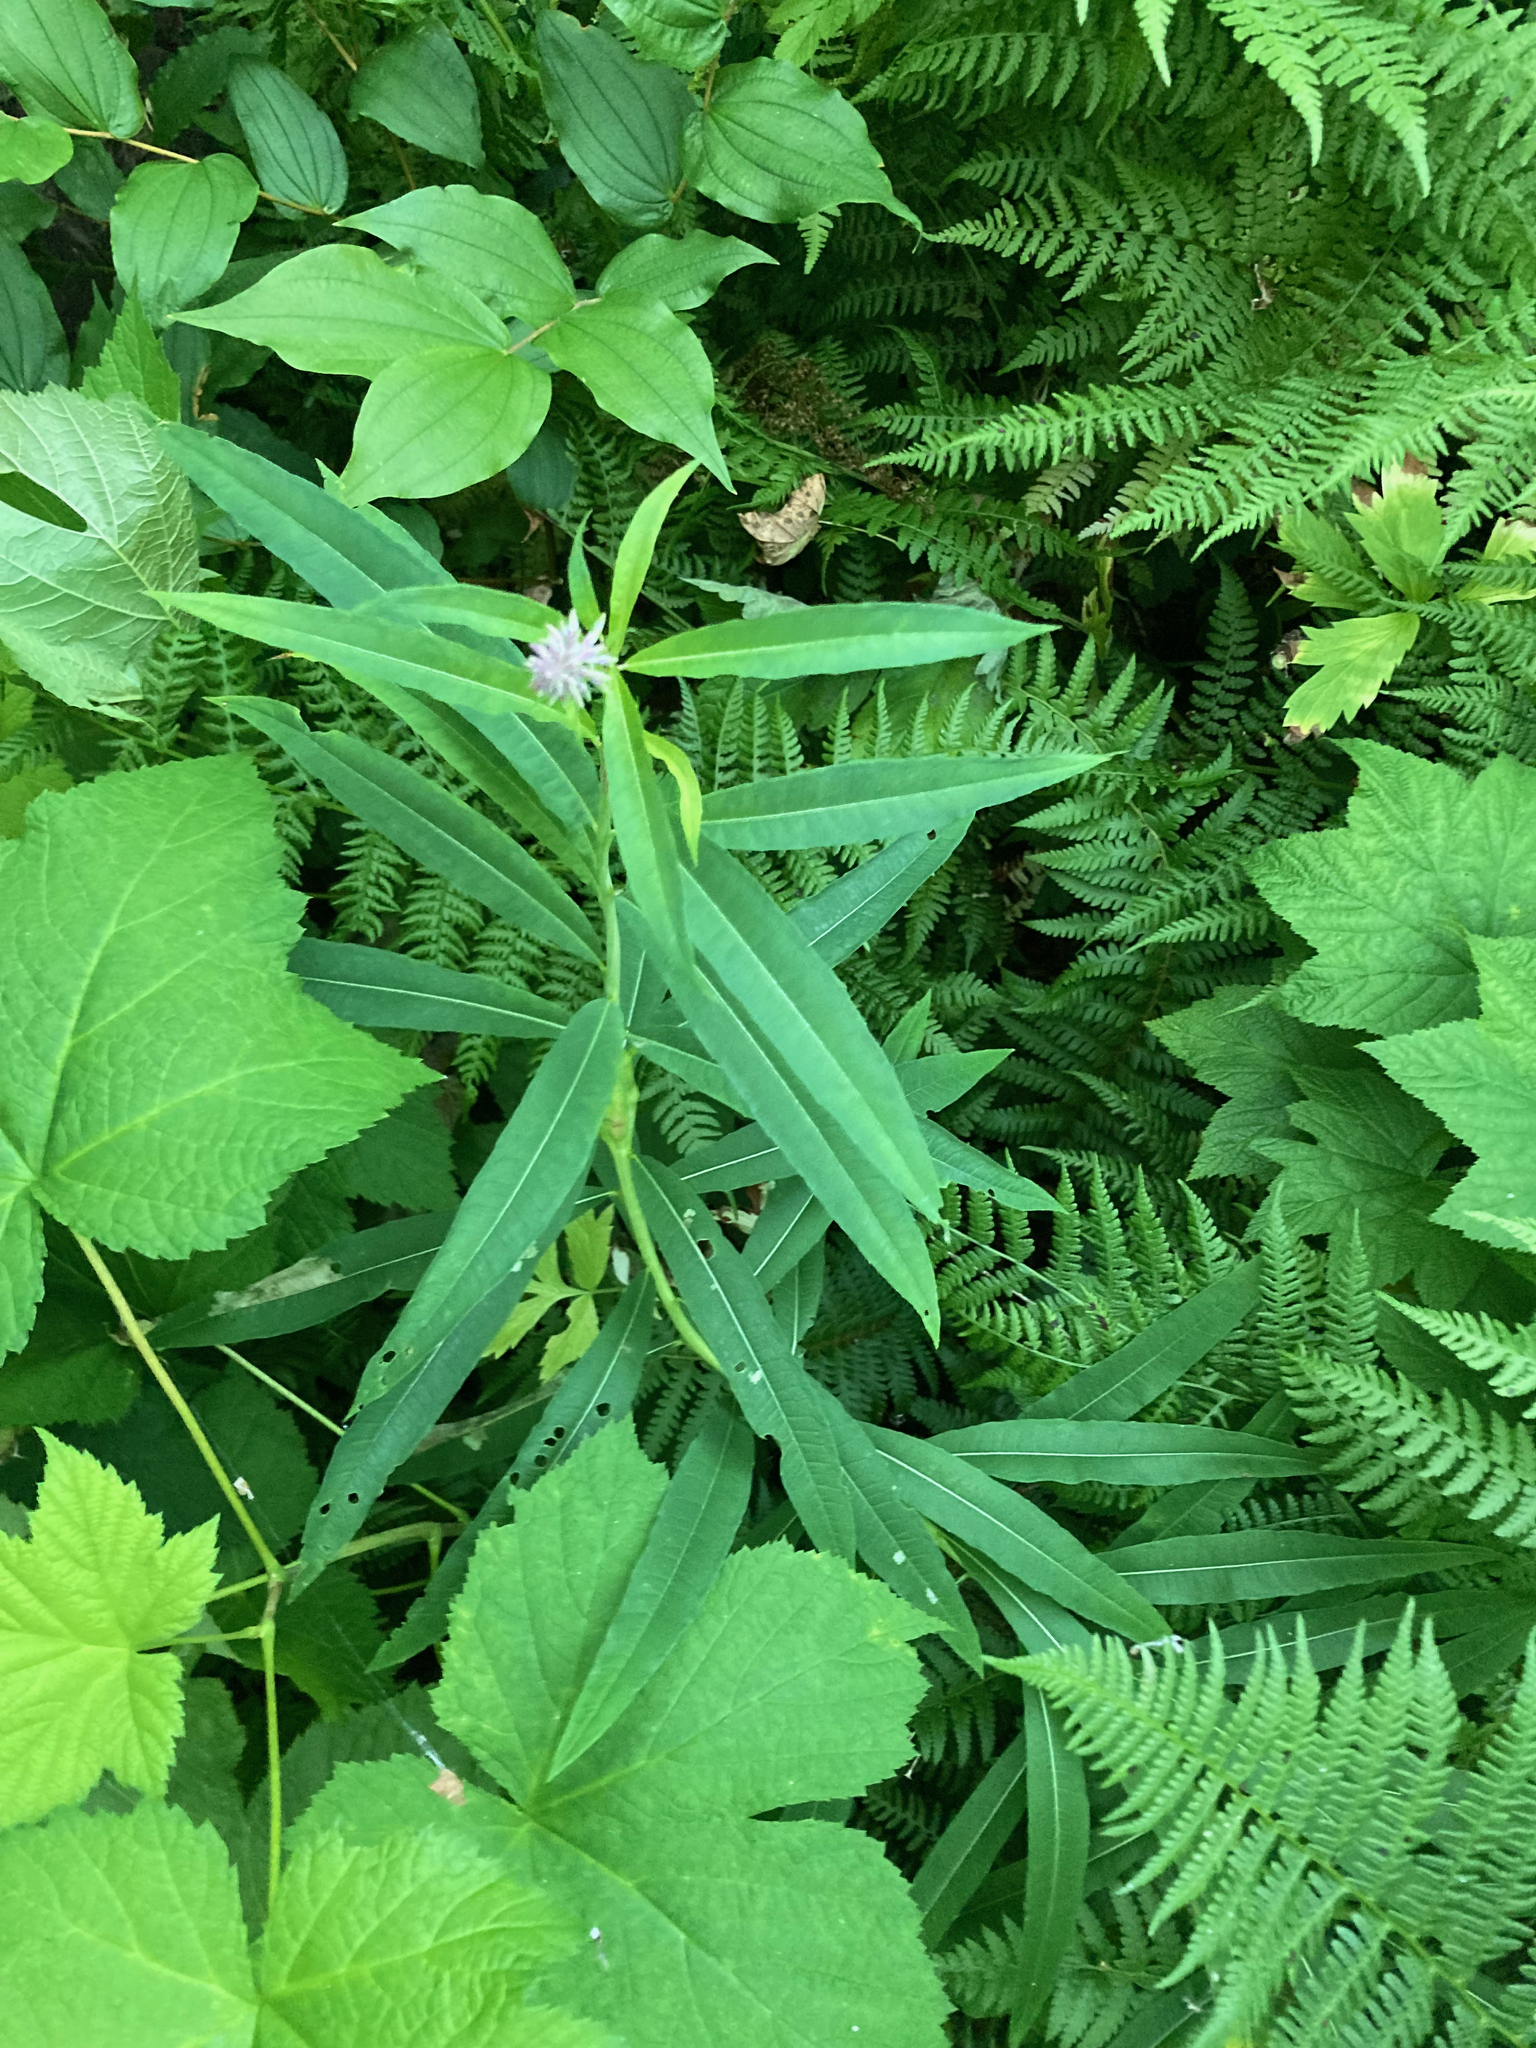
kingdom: Plantae
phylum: Tracheophyta
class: Magnoliopsida
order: Myrtales
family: Onagraceae
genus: Chamaenerion
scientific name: Chamaenerion angustifolium
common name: Fireweed
